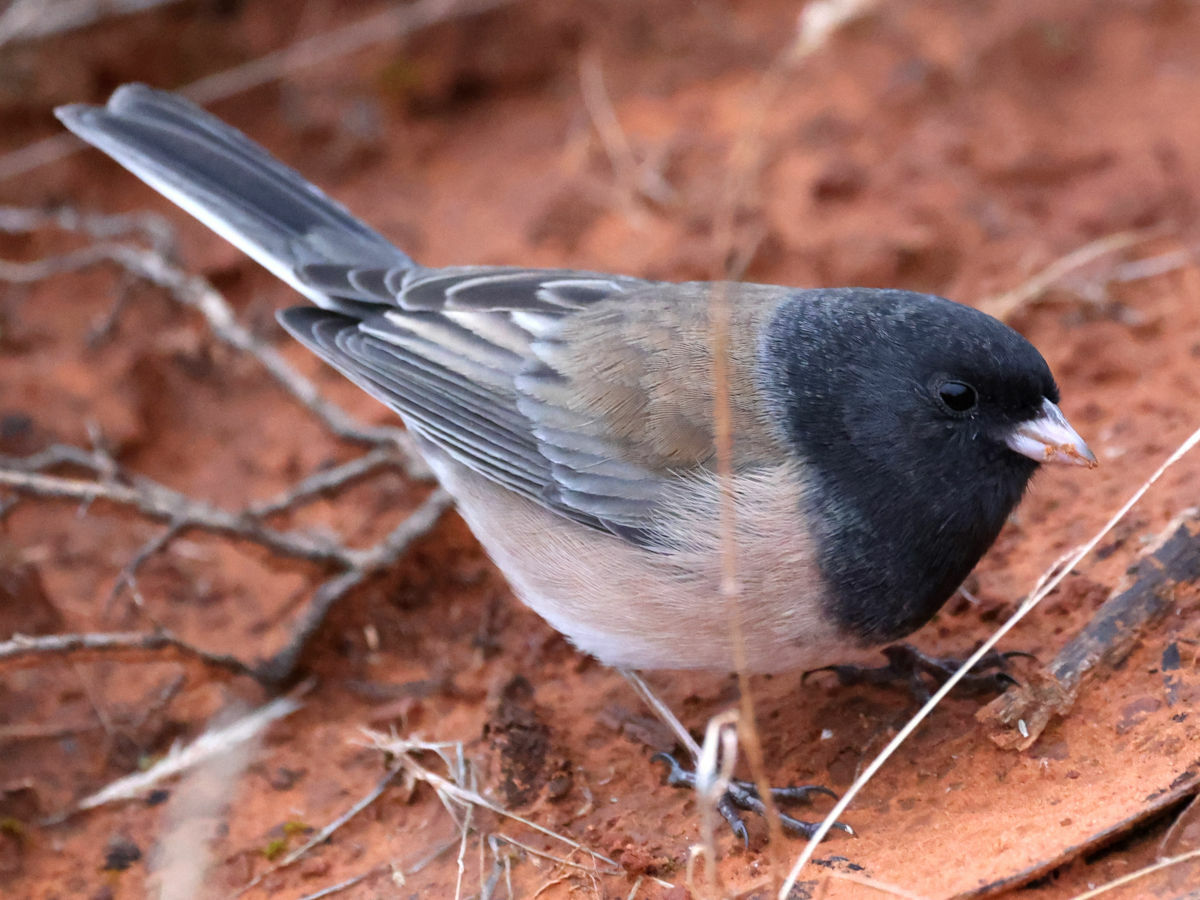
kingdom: Animalia
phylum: Chordata
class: Aves
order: Passeriformes
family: Passerellidae
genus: Junco
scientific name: Junco hyemalis
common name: Dark-eyed junco
